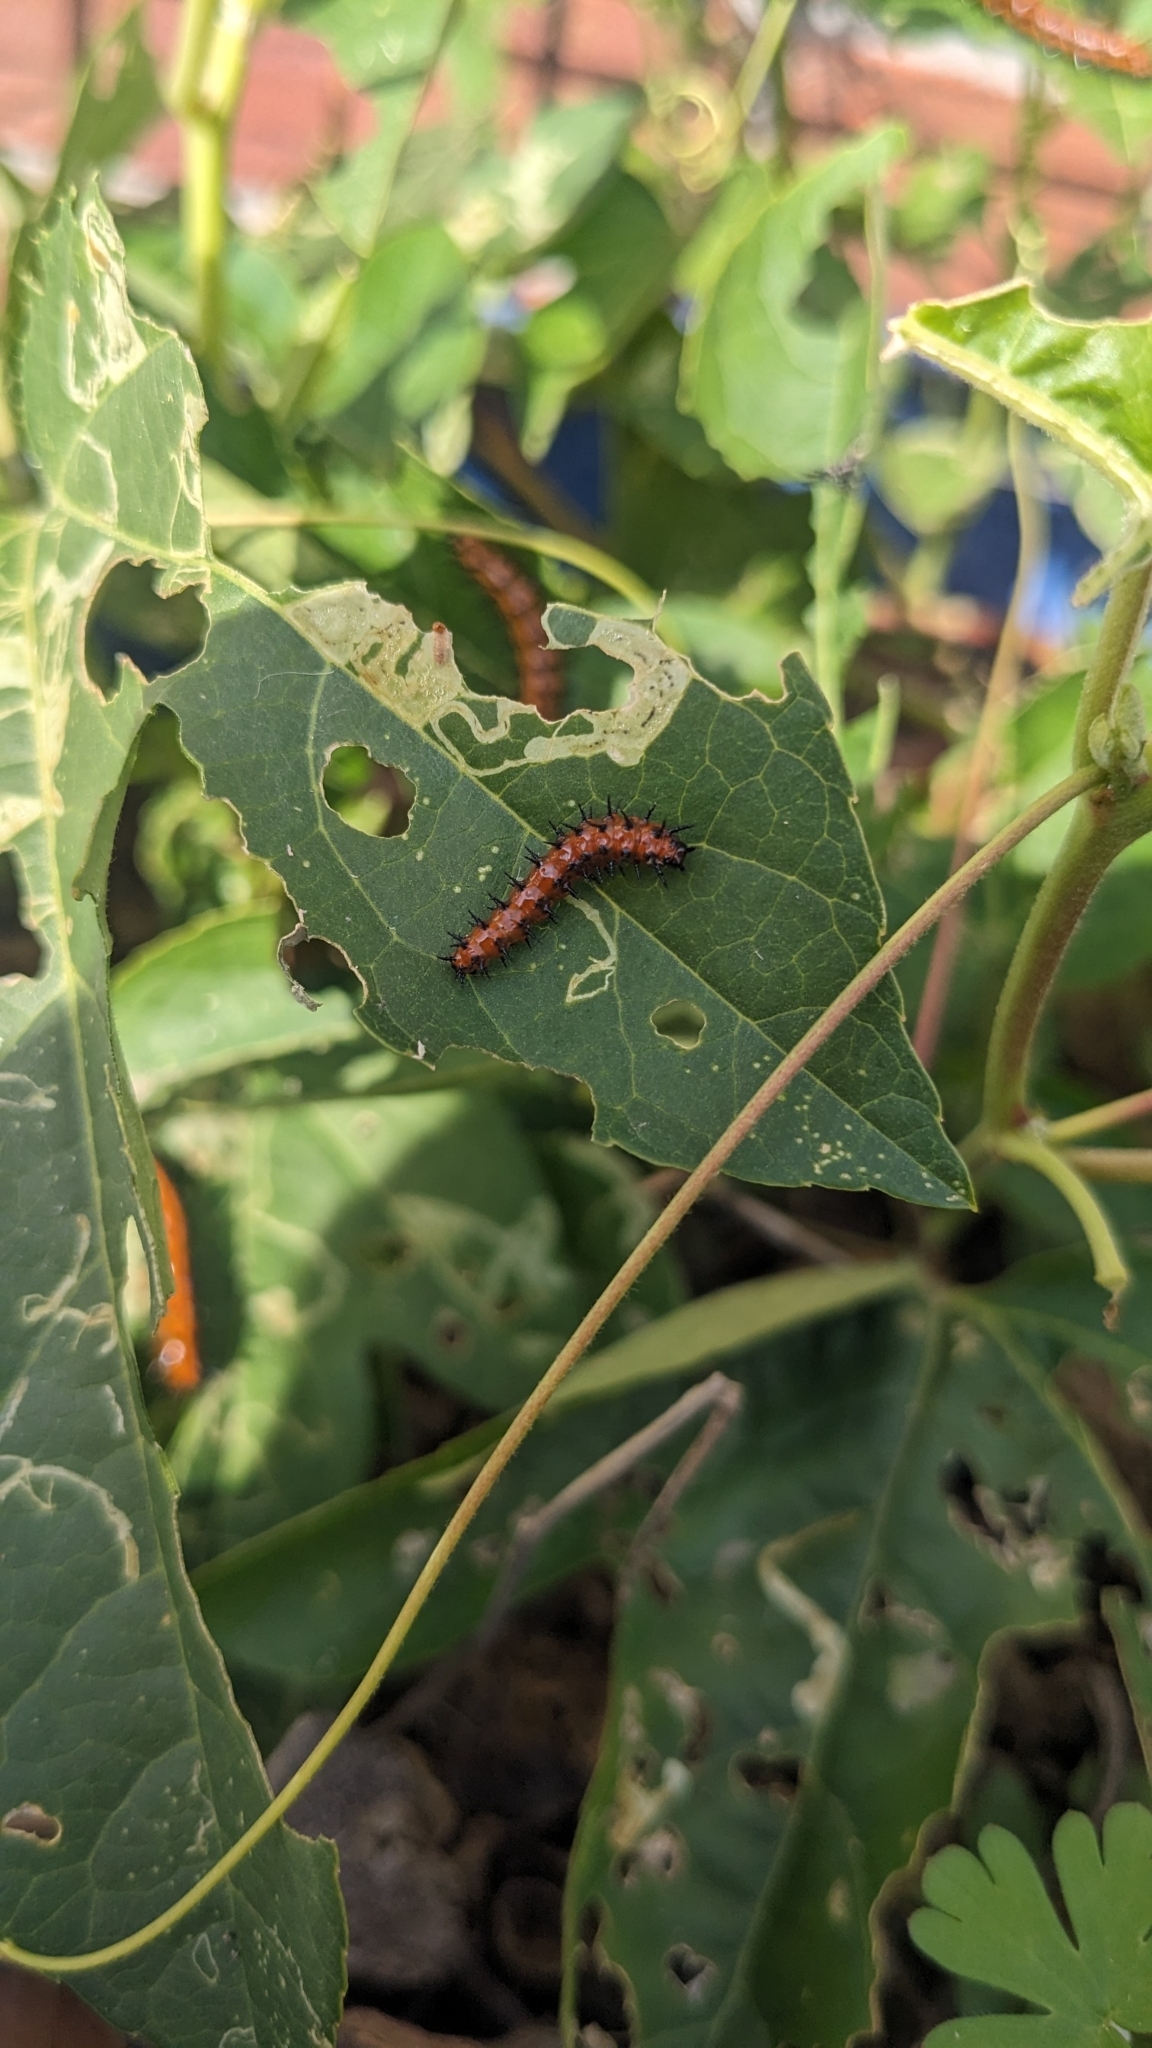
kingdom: Animalia
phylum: Arthropoda
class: Insecta
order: Lepidoptera
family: Nymphalidae
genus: Dione
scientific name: Dione vanillae
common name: Gulf fritillary
